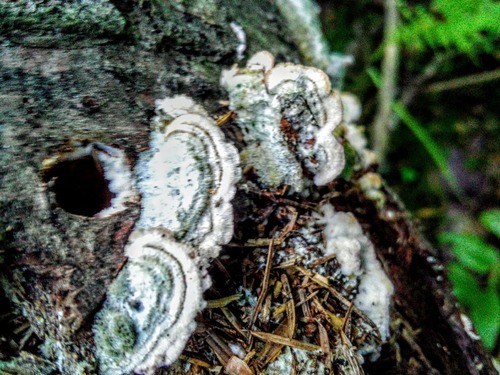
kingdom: Fungi
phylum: Basidiomycota
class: Agaricomycetes
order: Hymenochaetales
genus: Trichaptum
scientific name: Trichaptum fuscoviolaceum
